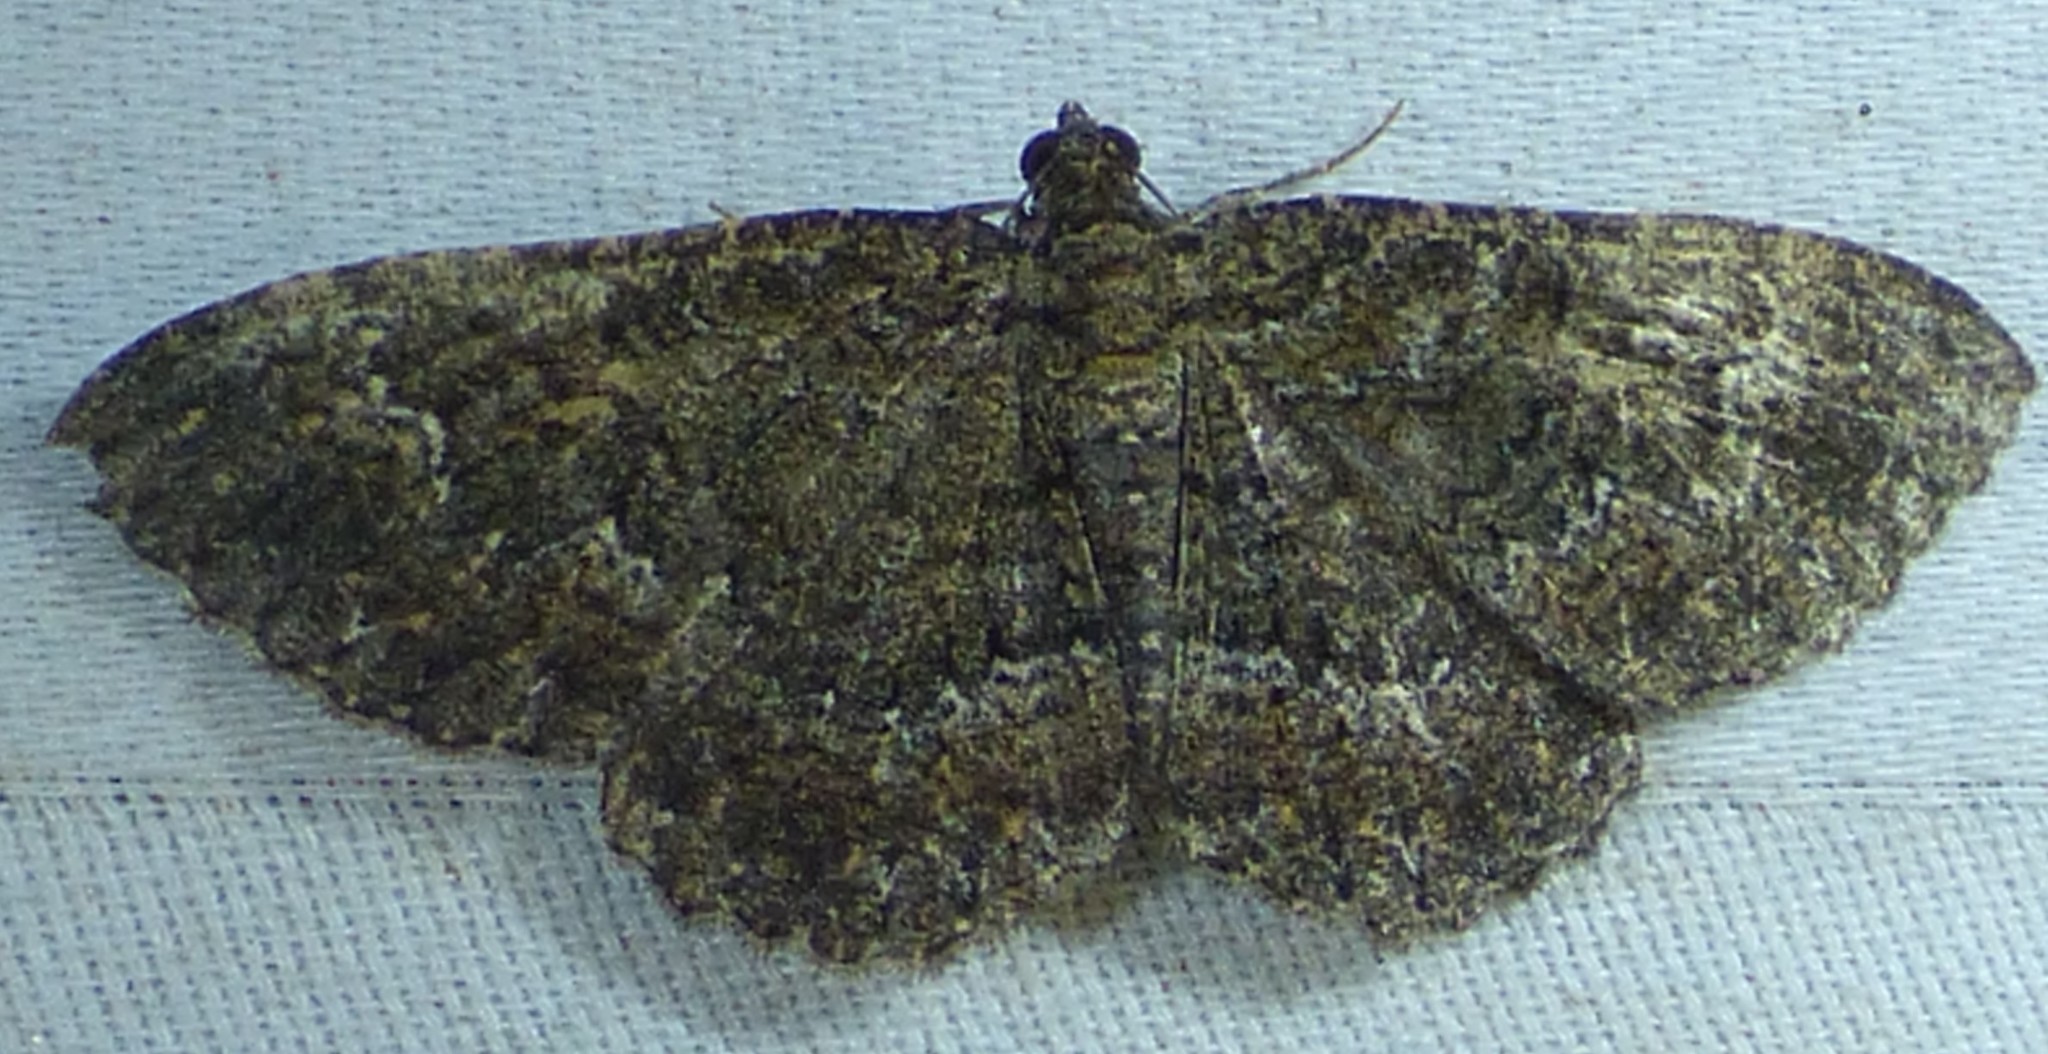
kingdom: Animalia
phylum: Arthropoda
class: Insecta
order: Lepidoptera
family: Geometridae
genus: Disclisioprocta
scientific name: Disclisioprocta stellata
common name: Somber carpet
